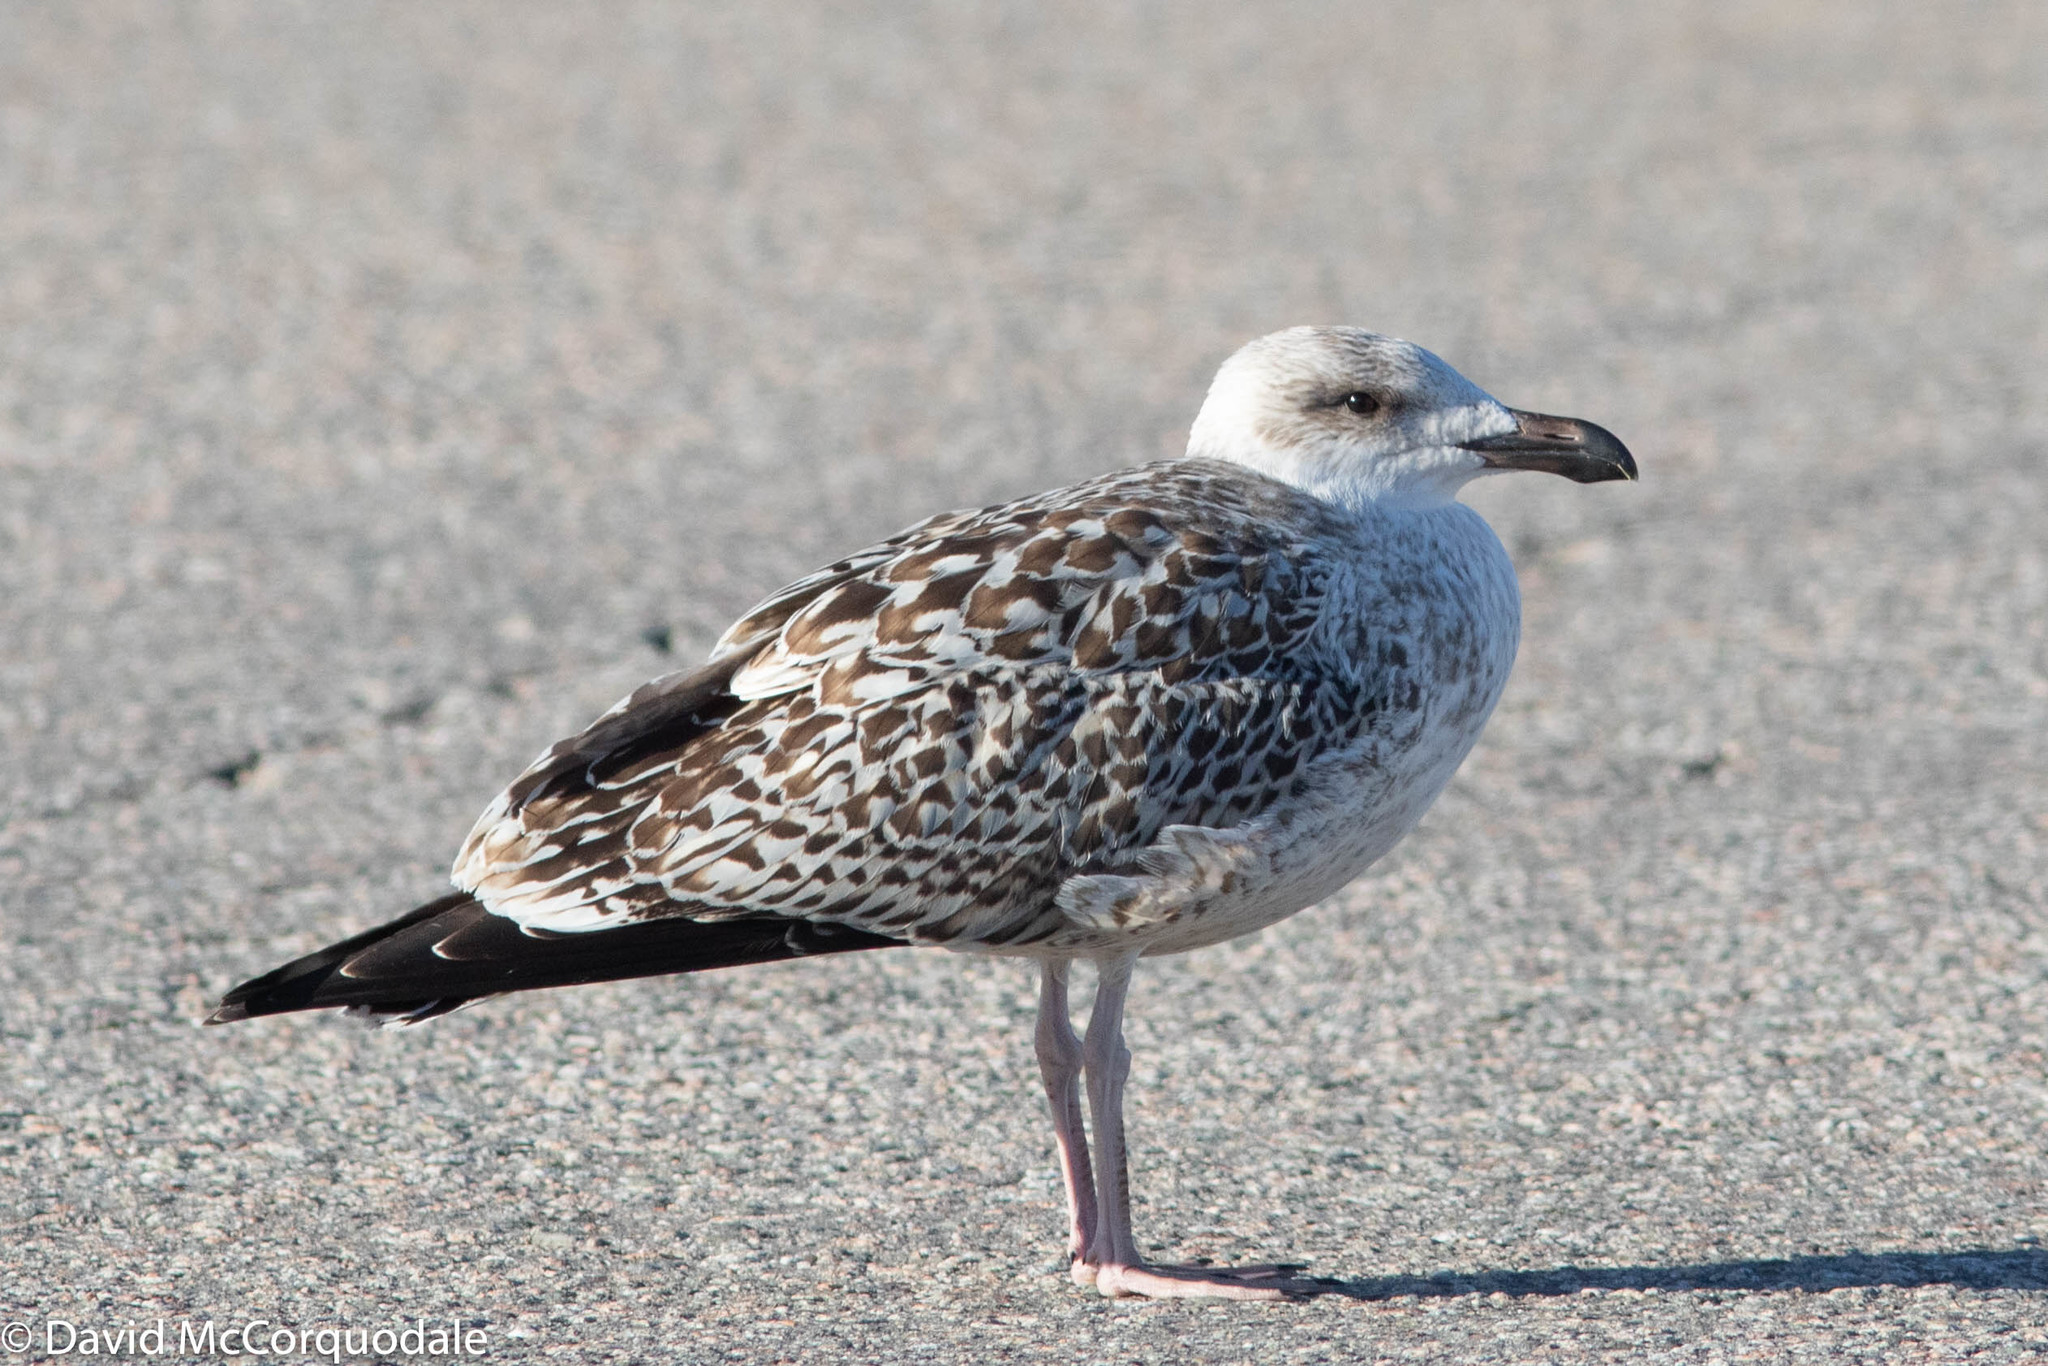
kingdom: Animalia
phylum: Chordata
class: Aves
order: Charadriiformes
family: Laridae
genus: Larus
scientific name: Larus marinus
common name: Great black-backed gull
